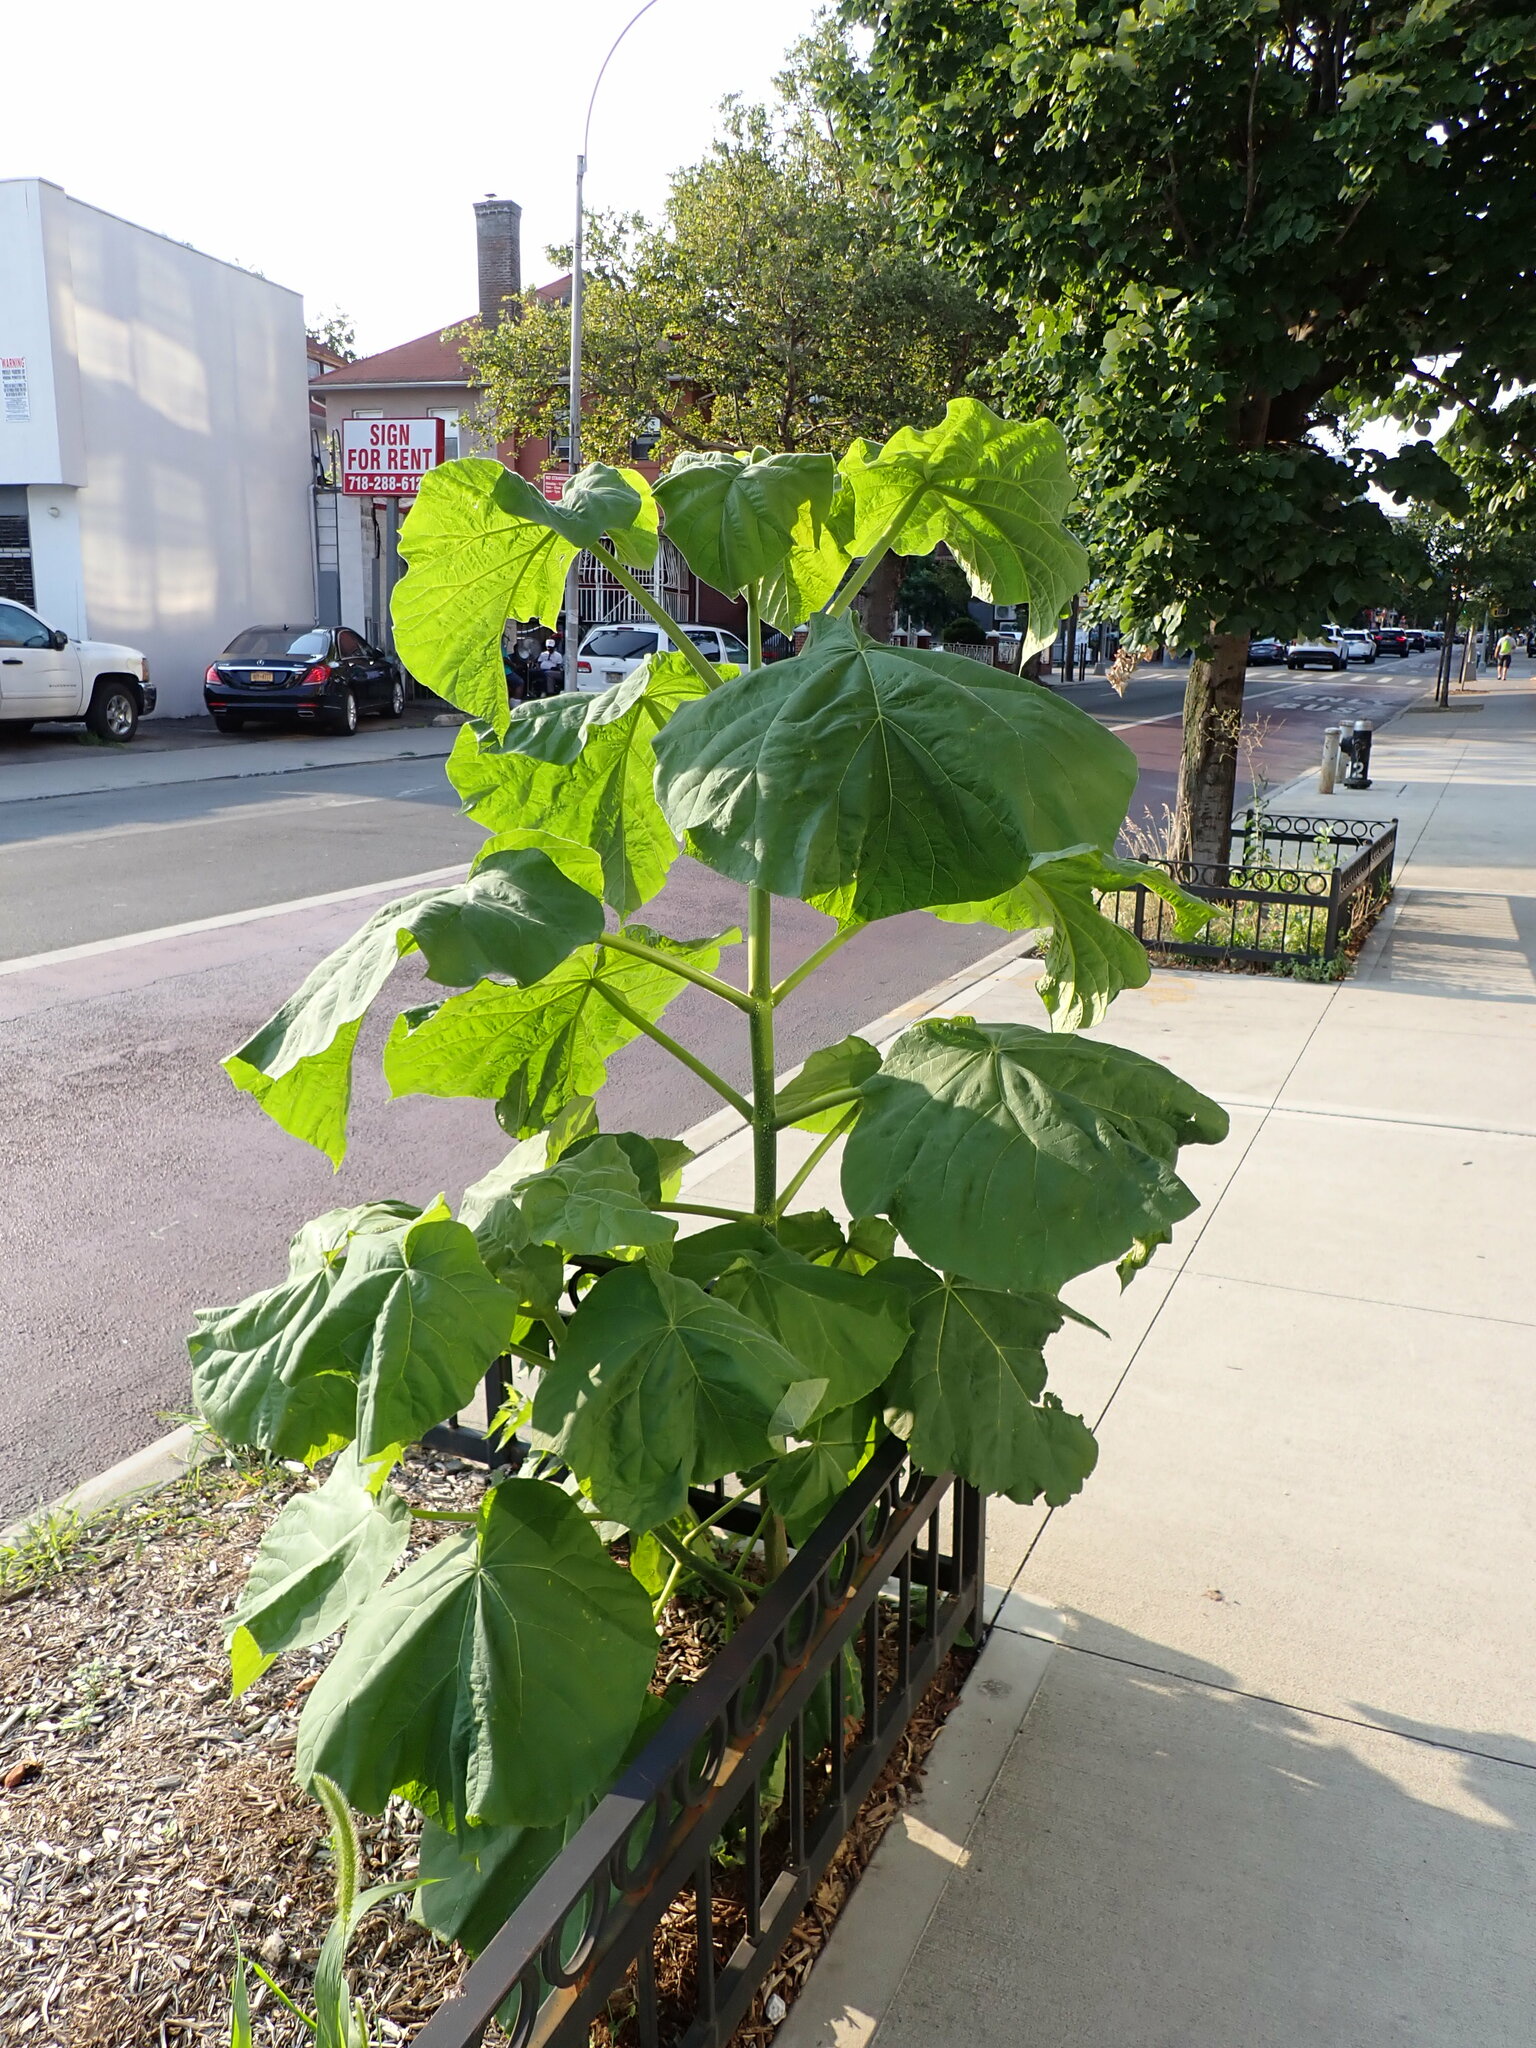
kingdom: Plantae
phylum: Tracheophyta
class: Magnoliopsida
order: Lamiales
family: Paulowniaceae
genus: Paulownia
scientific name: Paulownia tomentosa
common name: Foxglove-tree
